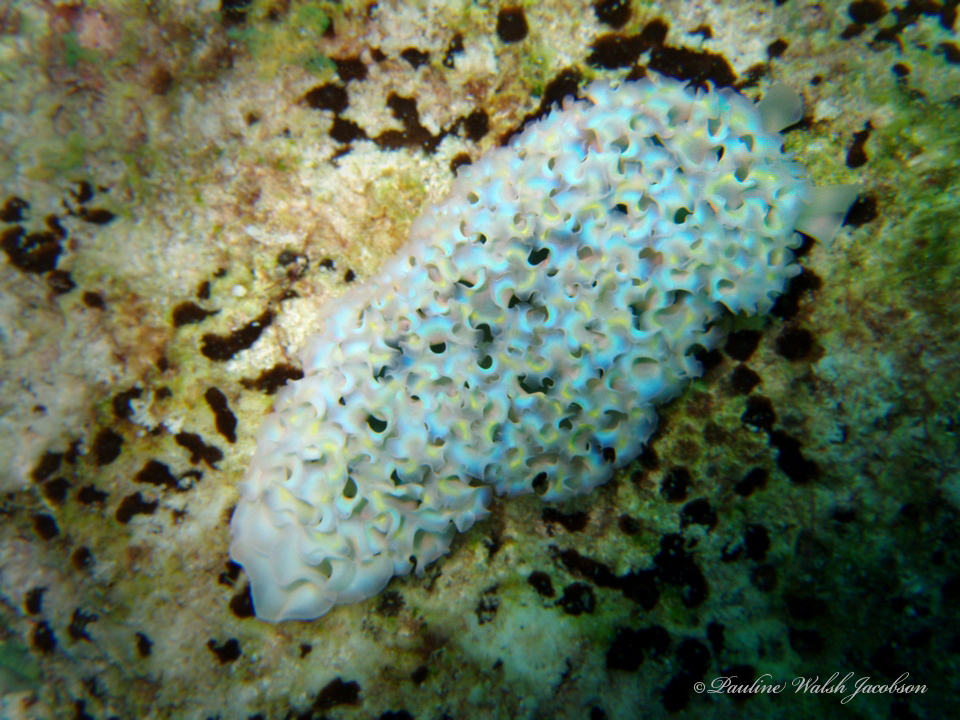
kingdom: Animalia
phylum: Mollusca
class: Gastropoda
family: Plakobranchidae
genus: Elysia
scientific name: Elysia crispata
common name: Lettuce slug
